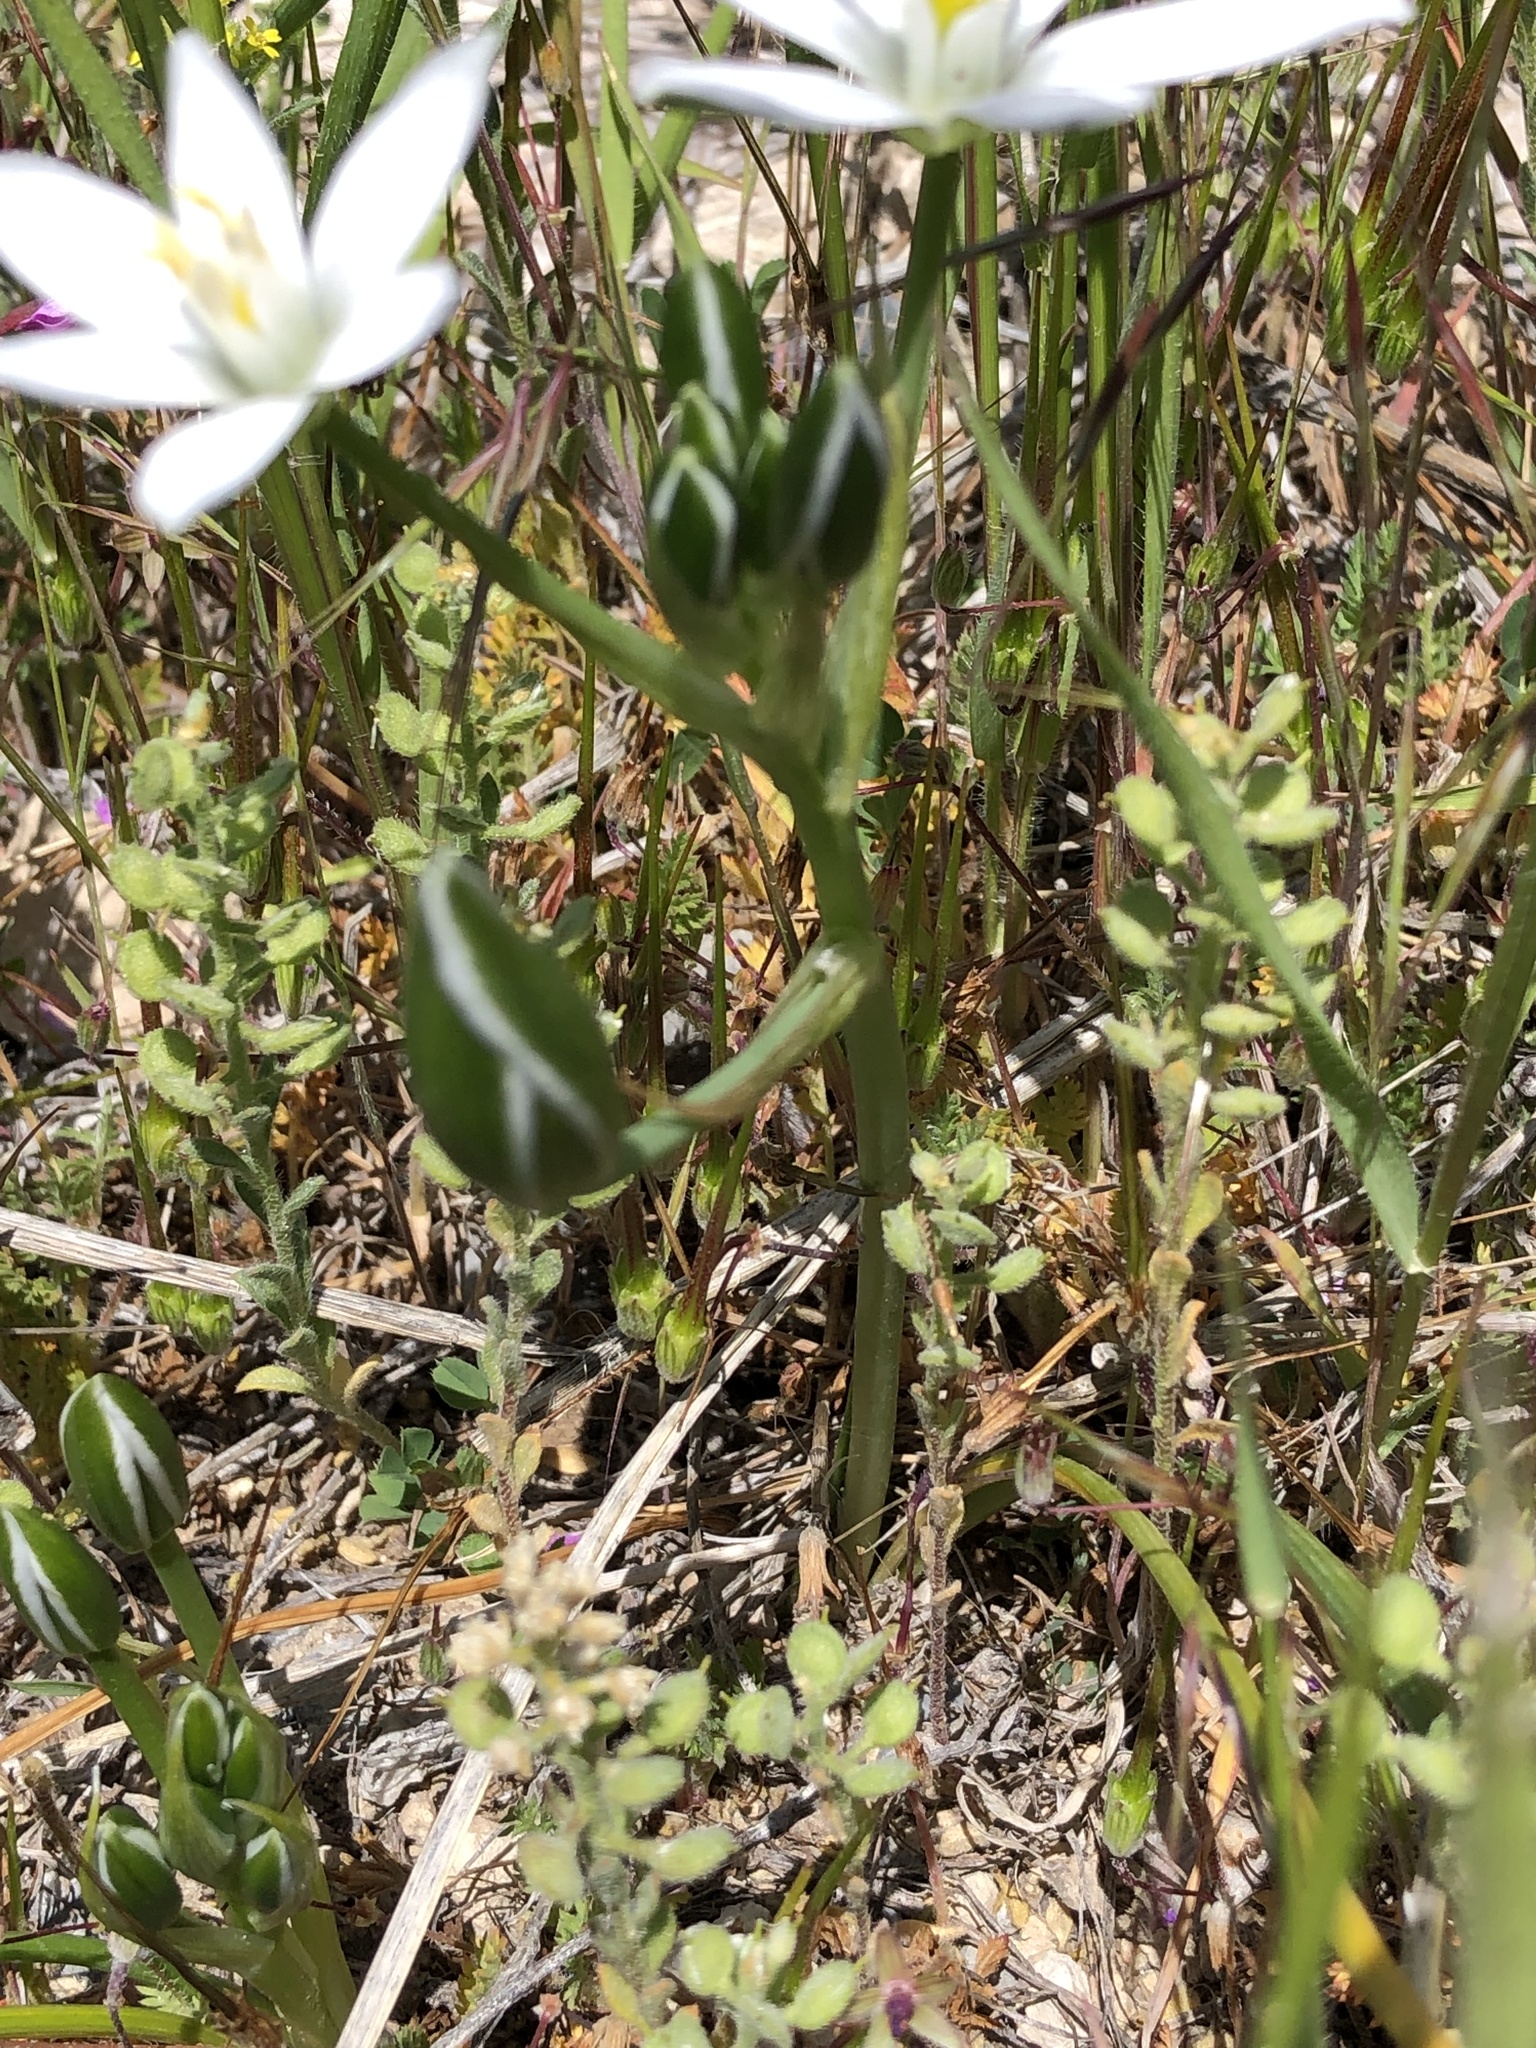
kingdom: Plantae
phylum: Tracheophyta
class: Liliopsida
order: Asparagales
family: Asparagaceae
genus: Ornithogalum
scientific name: Ornithogalum umbellatum
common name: Garden star-of-bethlehem
